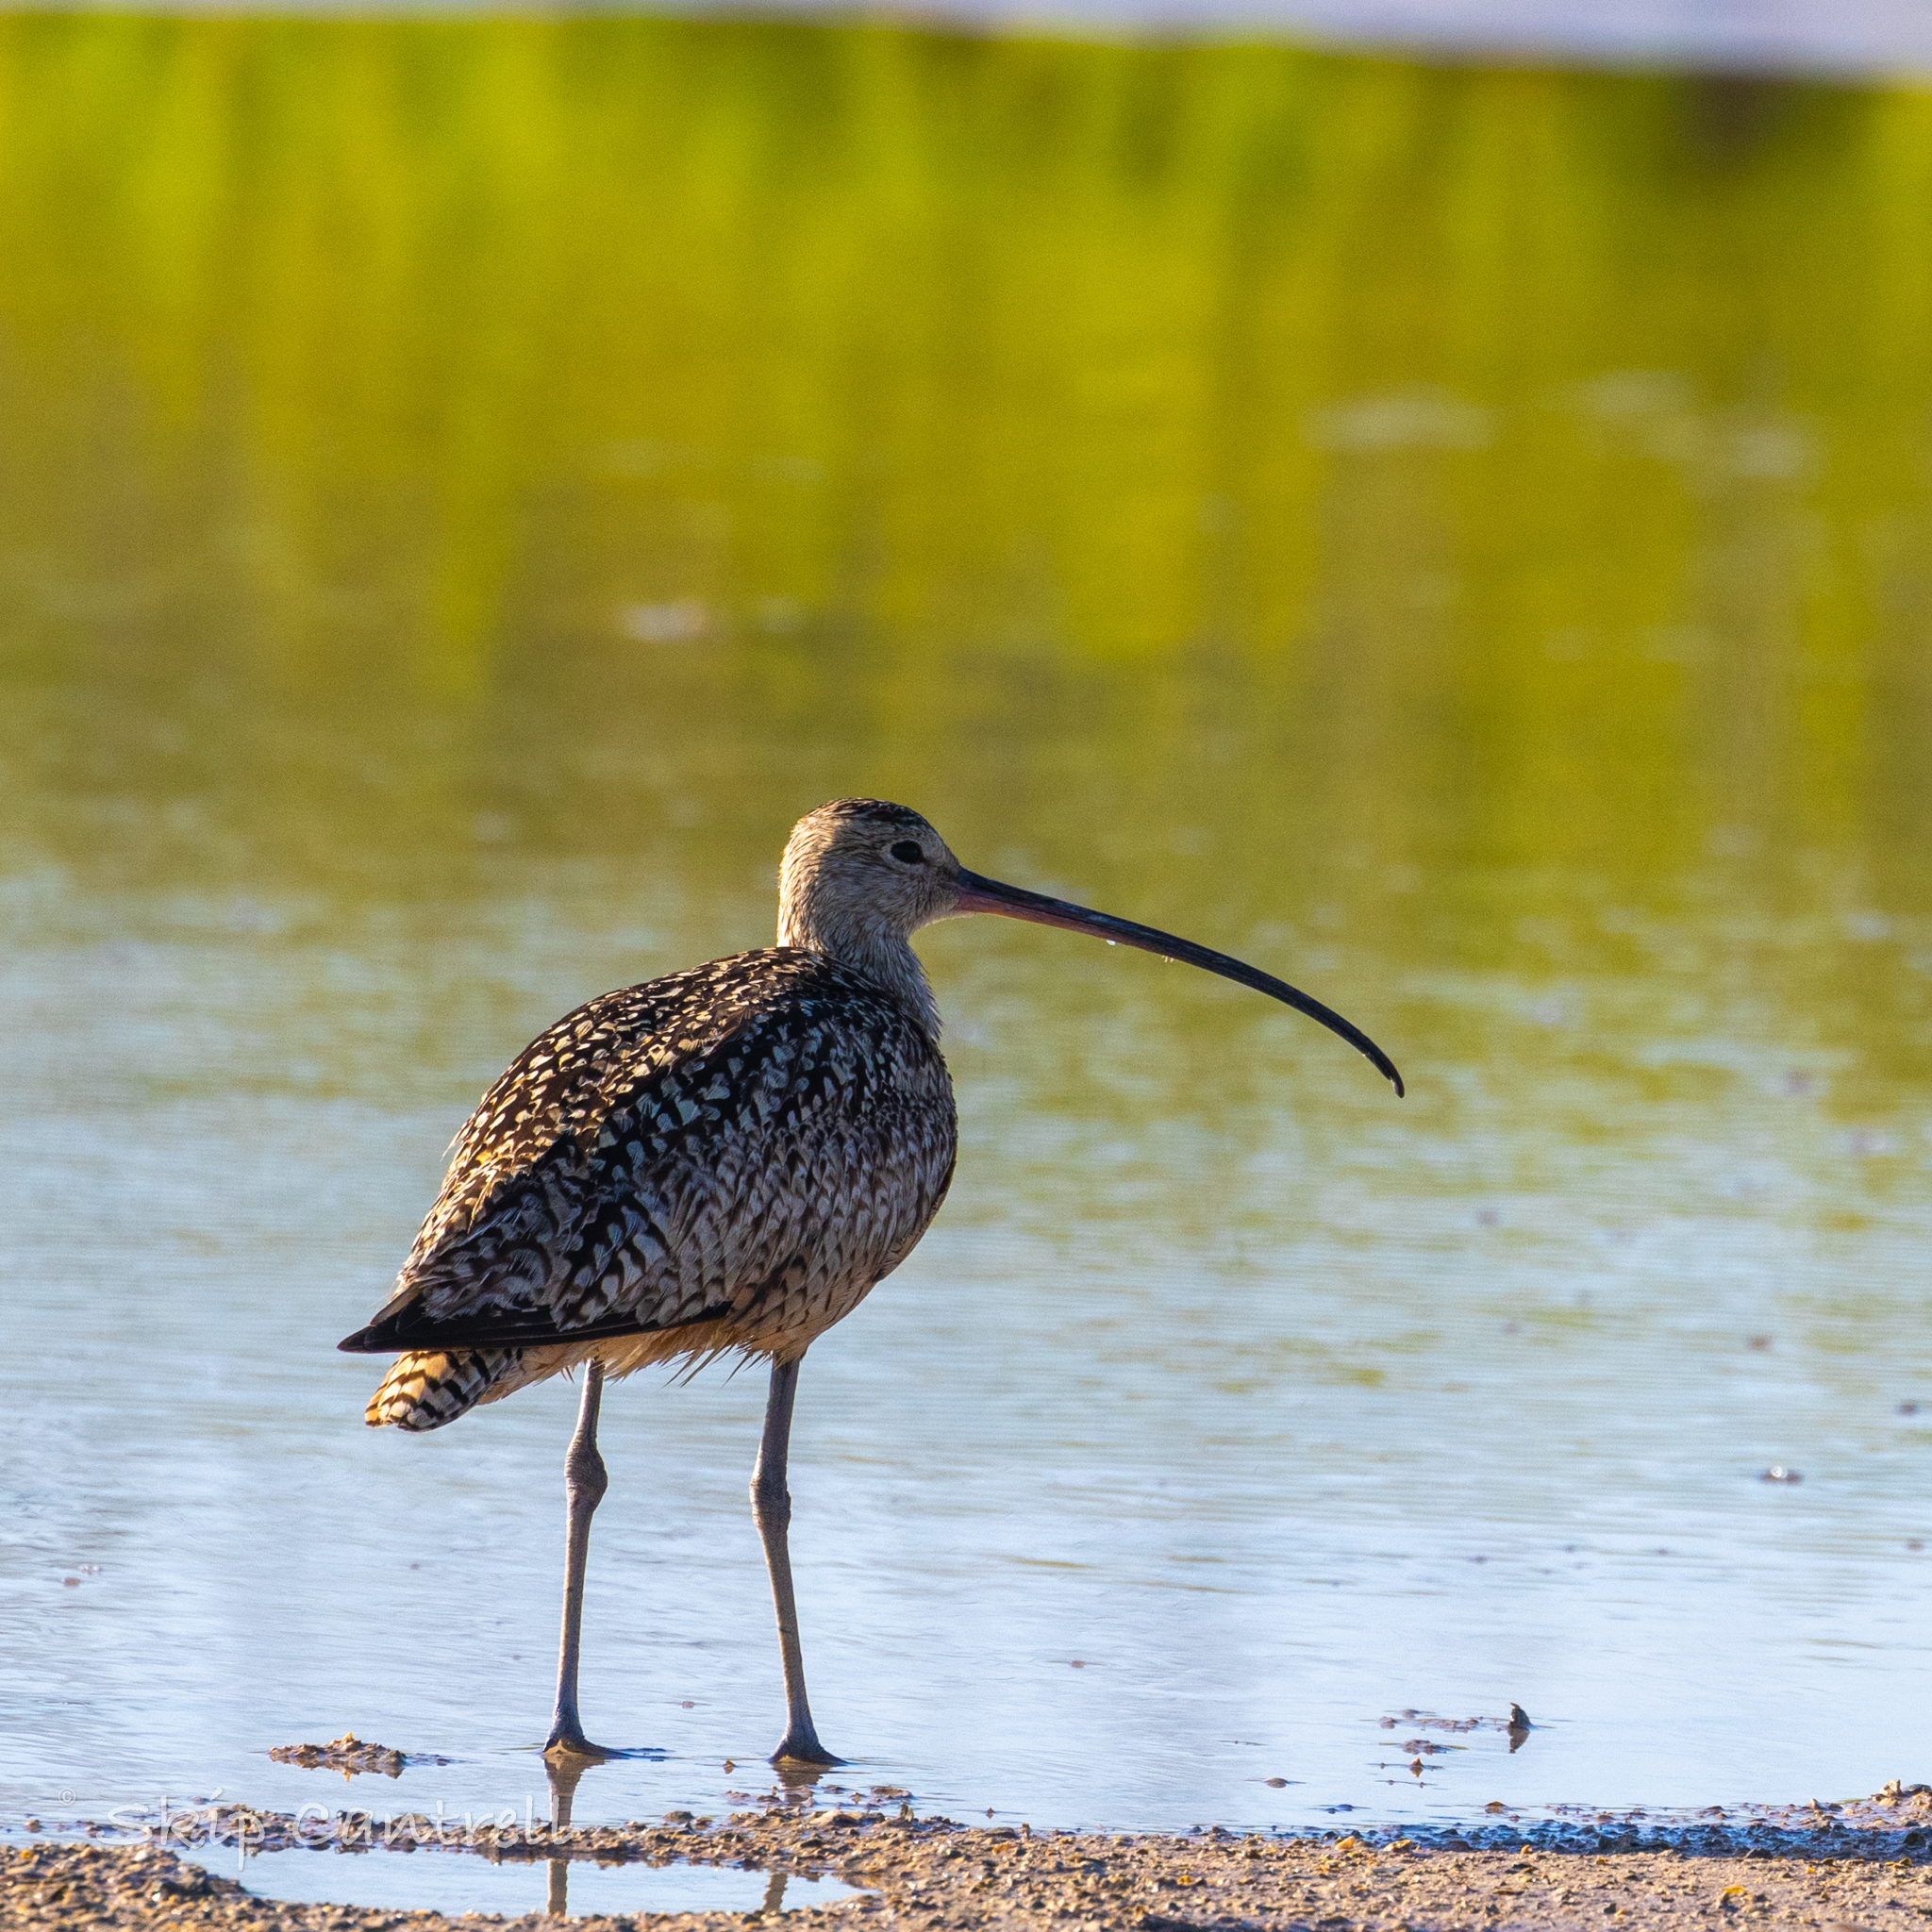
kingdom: Animalia
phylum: Chordata
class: Aves
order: Charadriiformes
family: Scolopacidae
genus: Numenius
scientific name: Numenius americanus
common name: Long-billed curlew
